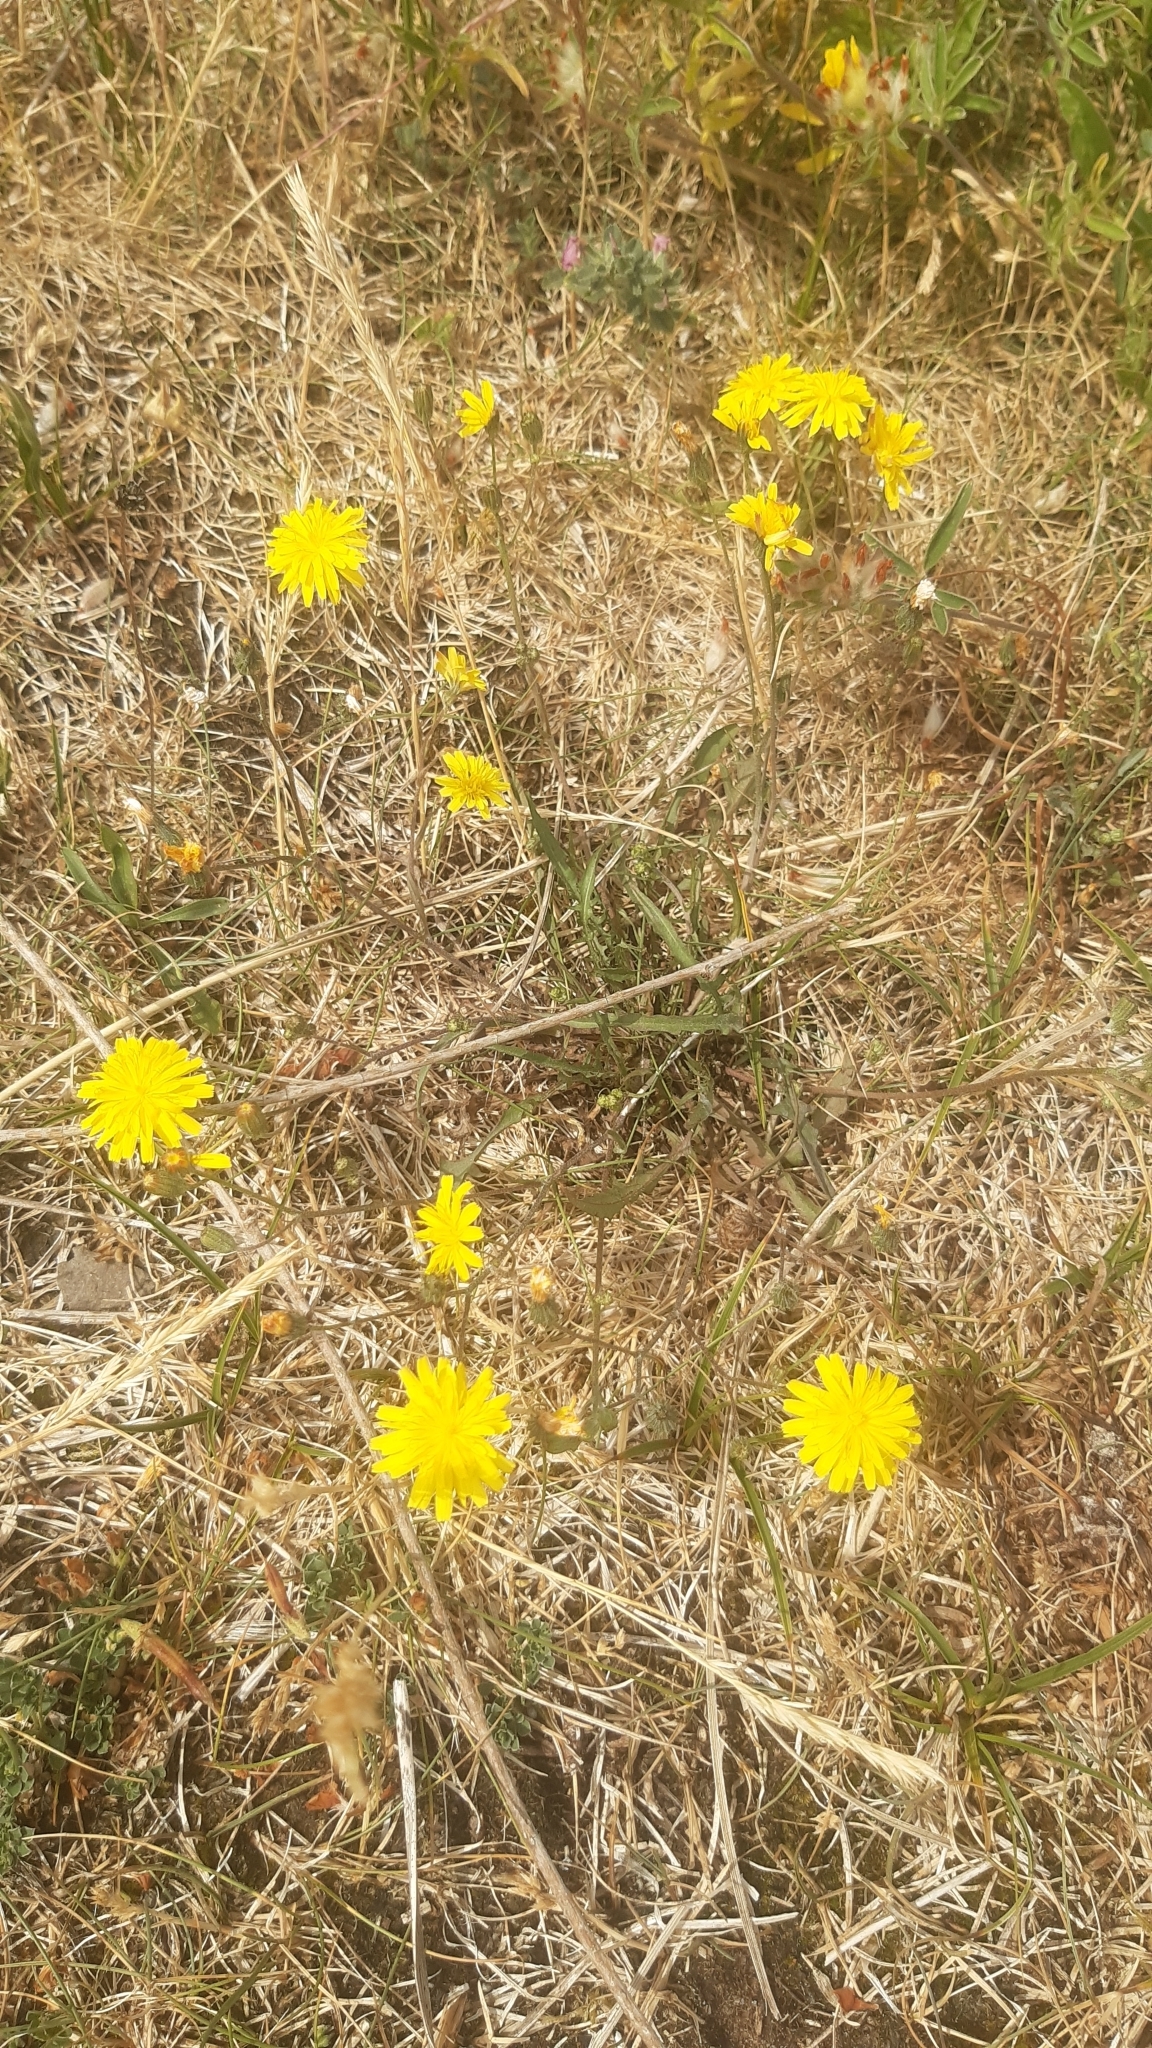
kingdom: Plantae
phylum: Tracheophyta
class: Magnoliopsida
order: Asterales
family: Asteraceae
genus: Scorzoneroides
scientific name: Scorzoneroides autumnalis
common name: Autumn hawkbit
